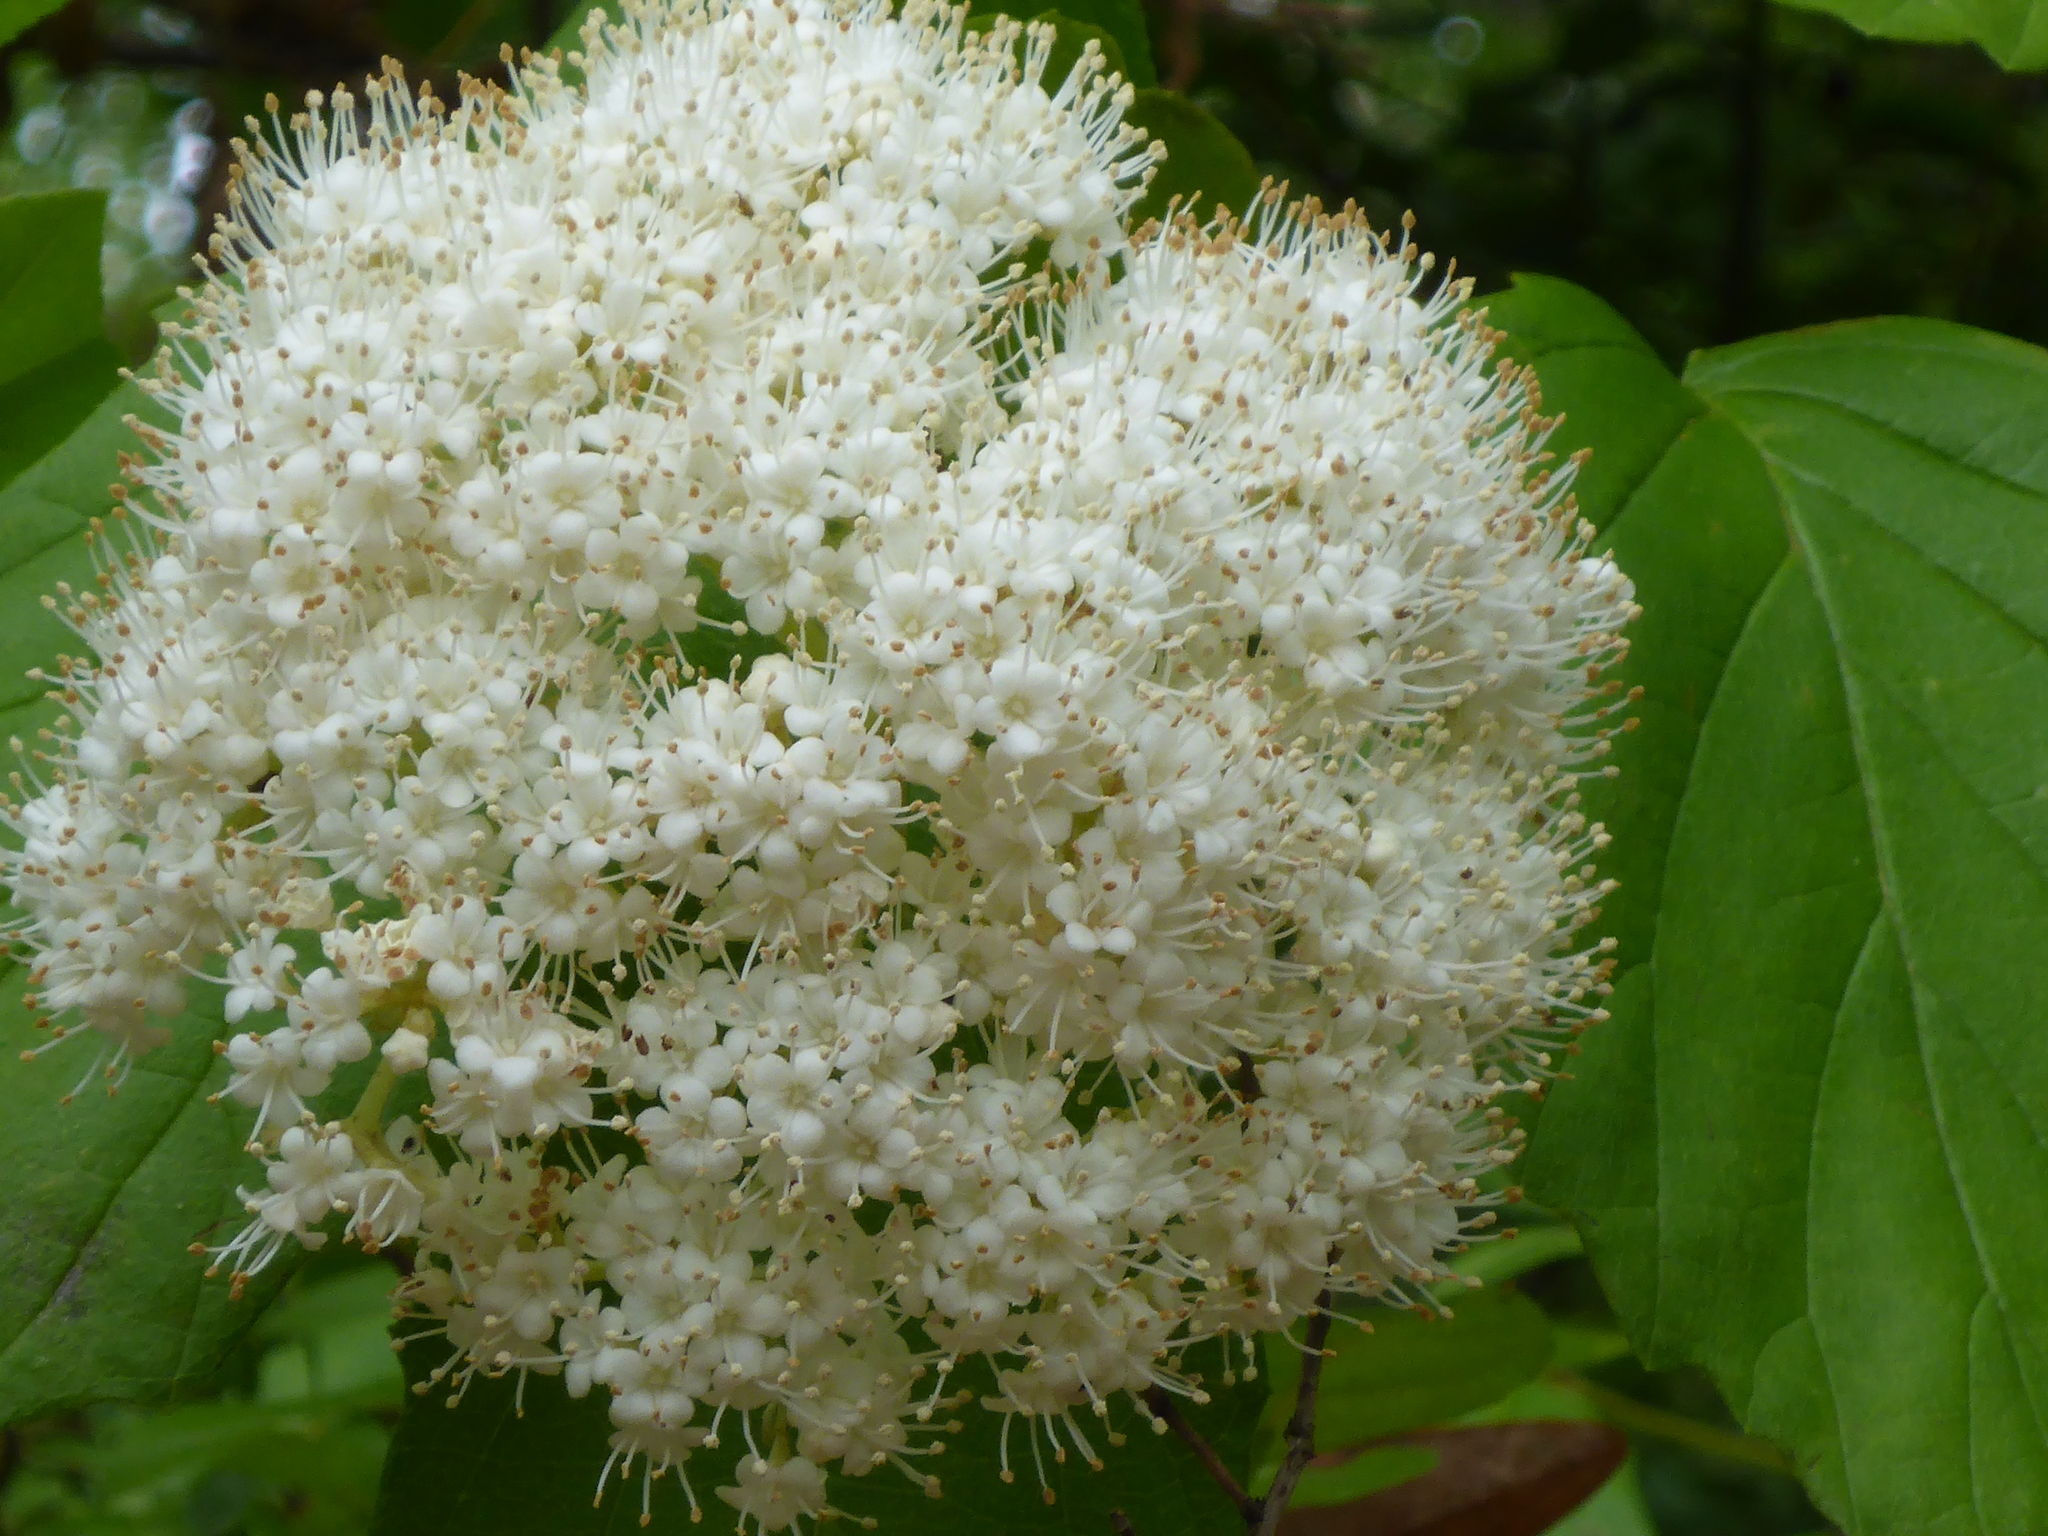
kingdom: Plantae
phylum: Tracheophyta
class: Magnoliopsida
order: Dipsacales
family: Viburnaceae
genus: Viburnum
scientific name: Viburnum scabrellum
